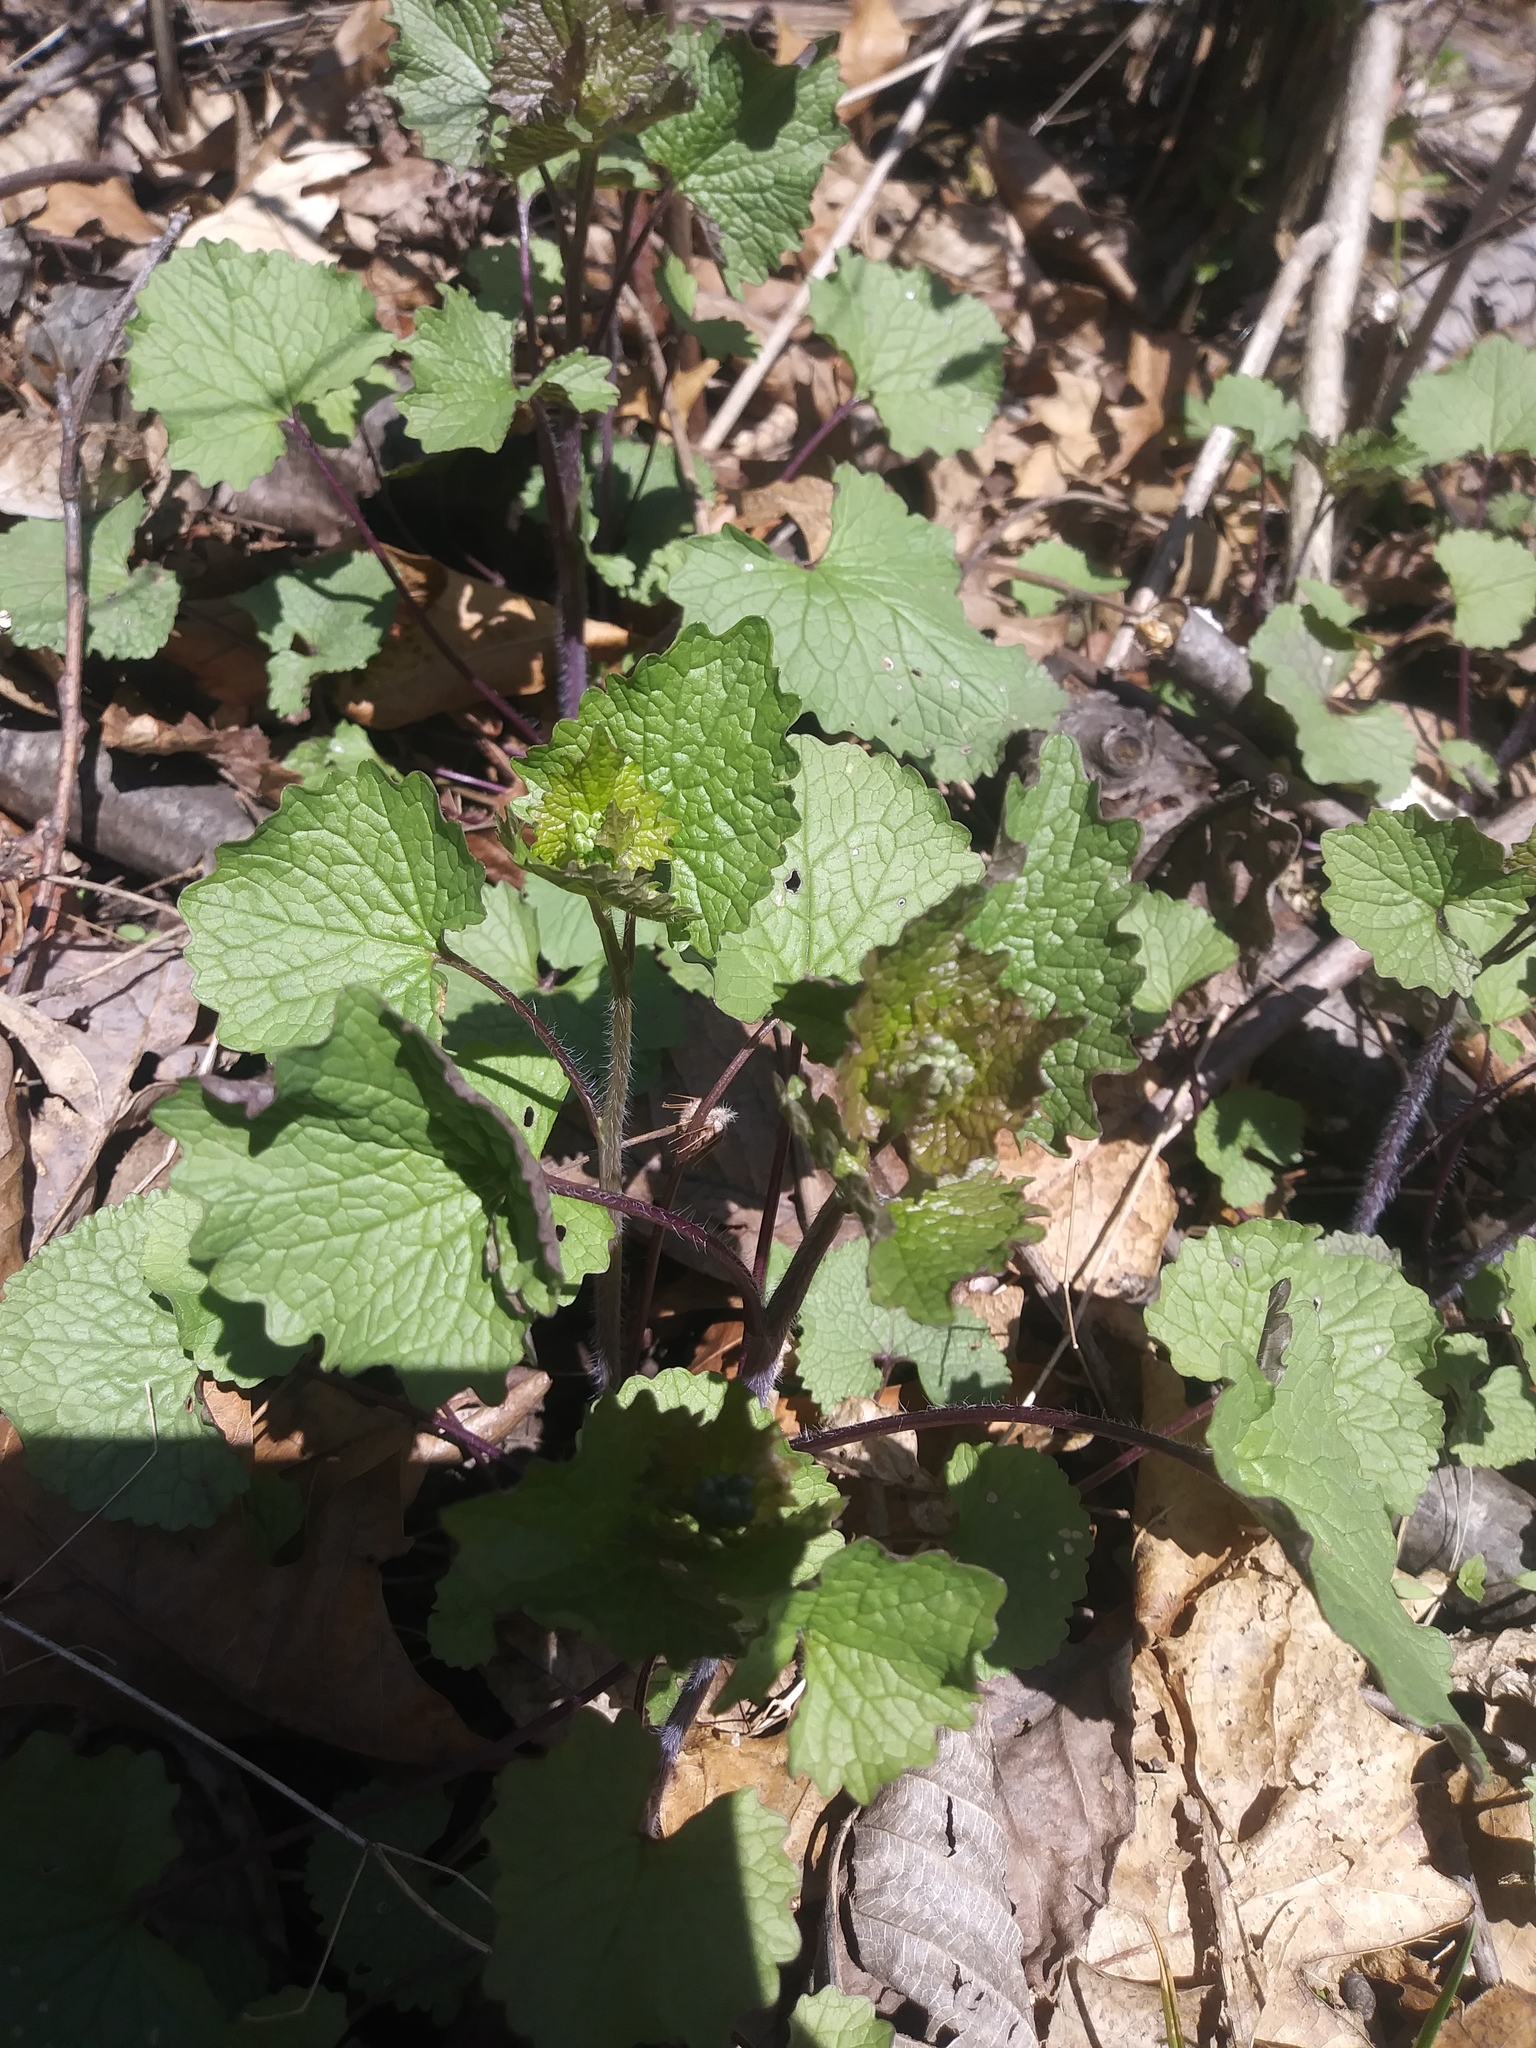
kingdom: Plantae
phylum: Tracheophyta
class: Magnoliopsida
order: Brassicales
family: Brassicaceae
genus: Alliaria
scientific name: Alliaria petiolata
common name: Garlic mustard
